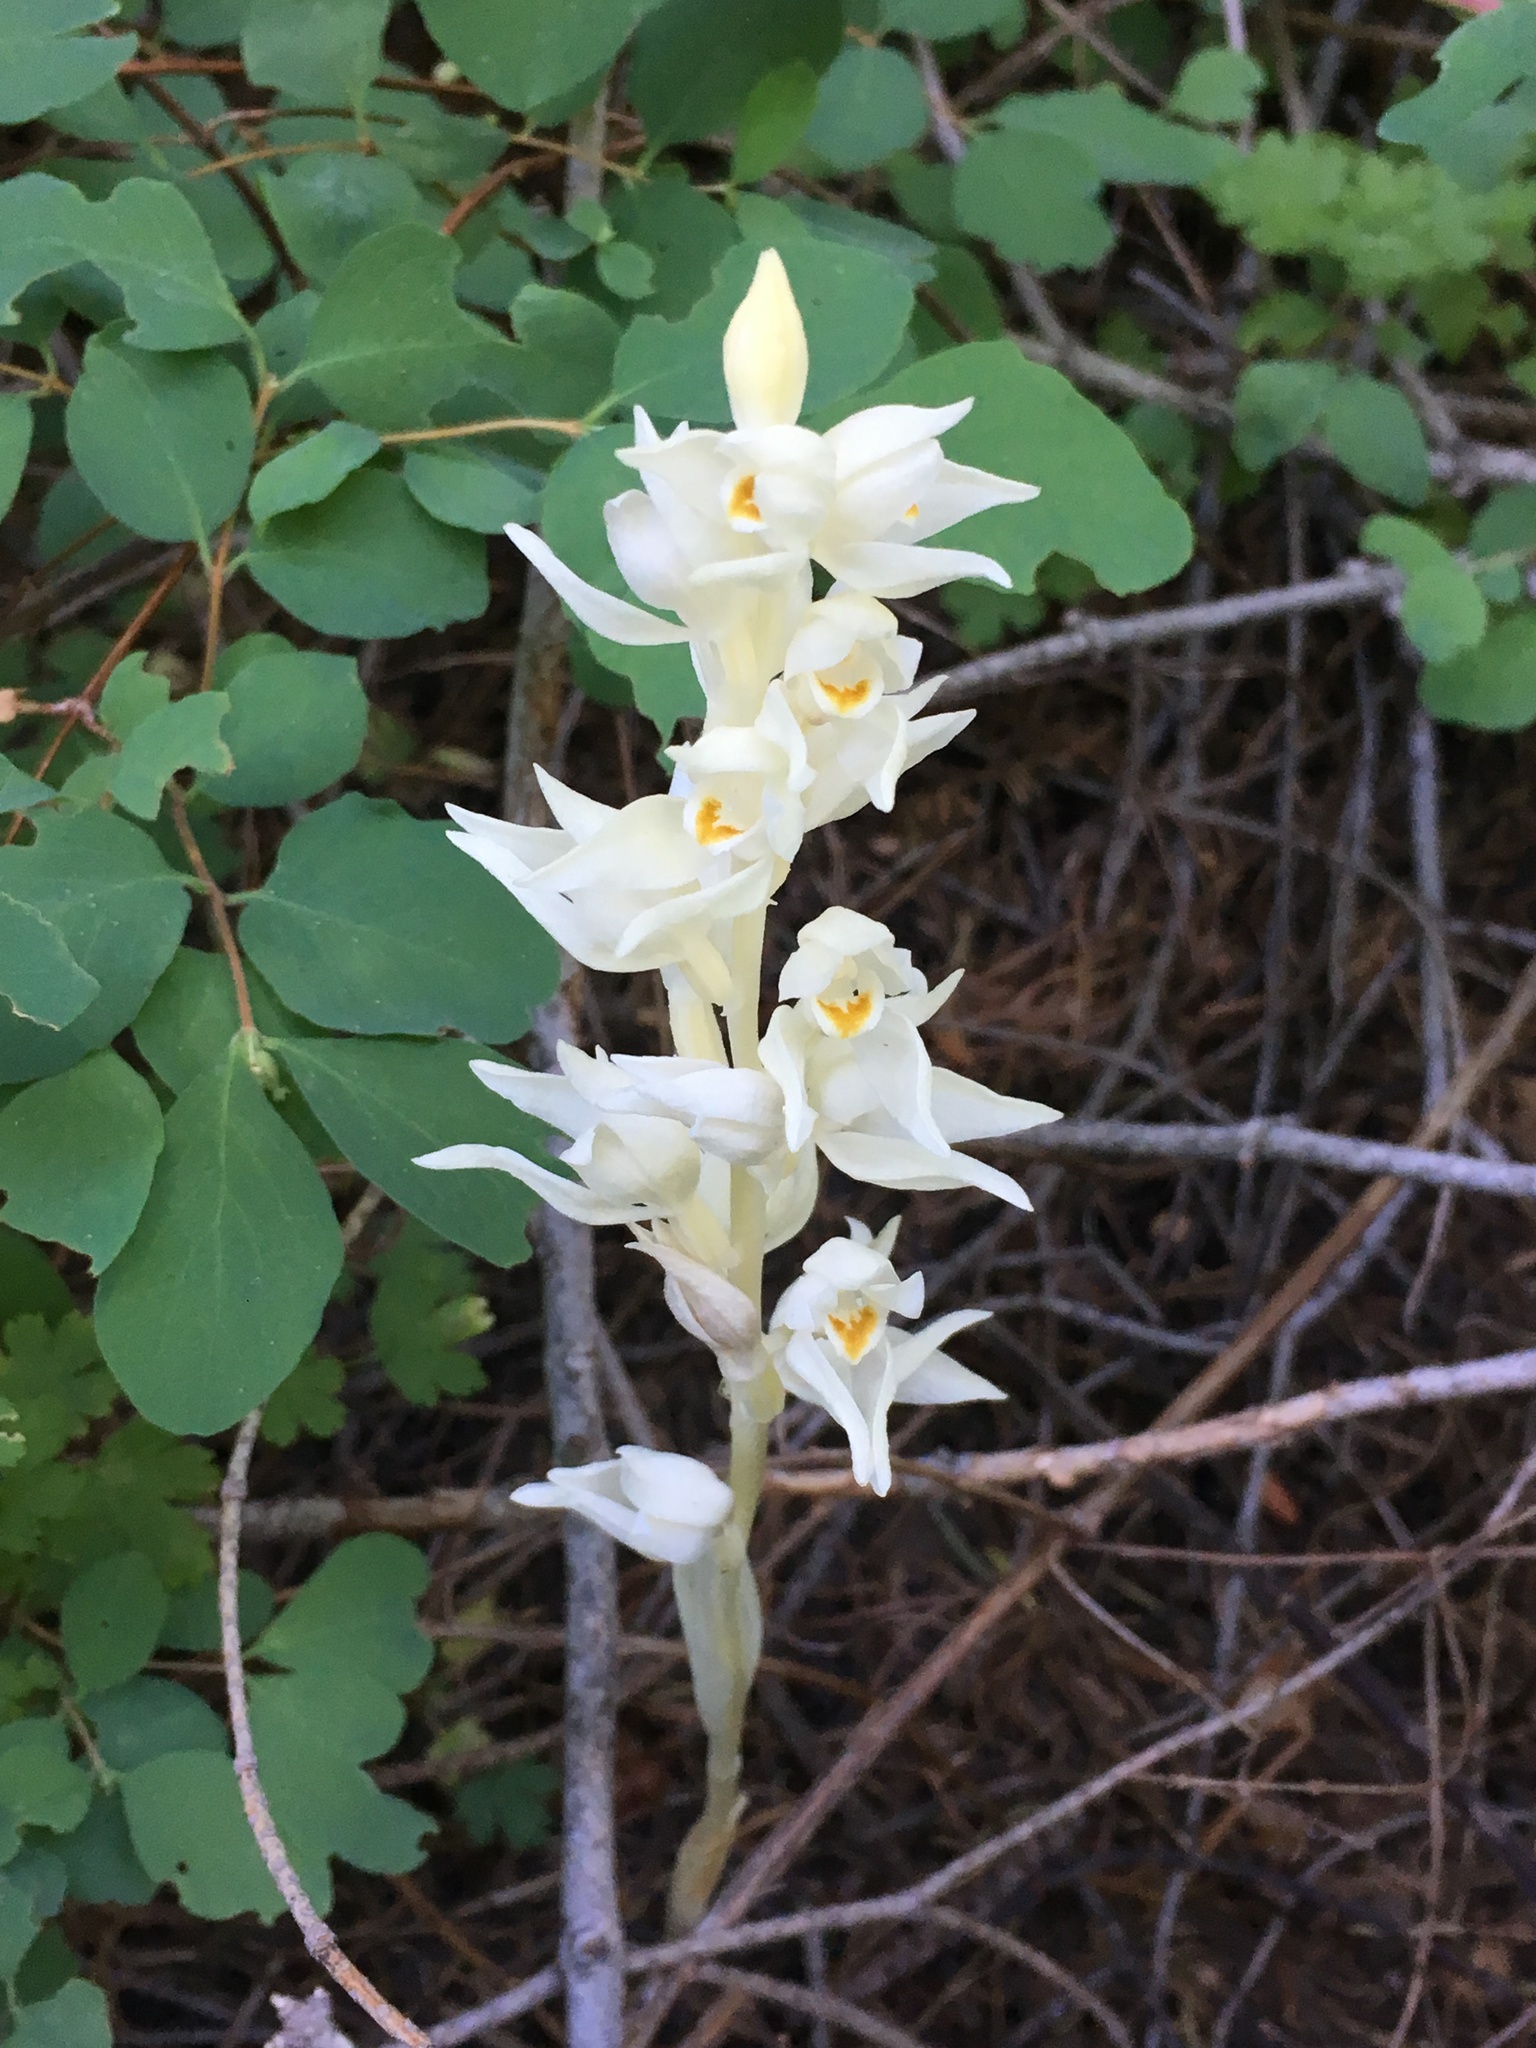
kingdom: Plantae
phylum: Tracheophyta
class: Liliopsida
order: Asparagales
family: Orchidaceae
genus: Cephalanthera
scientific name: Cephalanthera austiniae
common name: Phantom orchid
